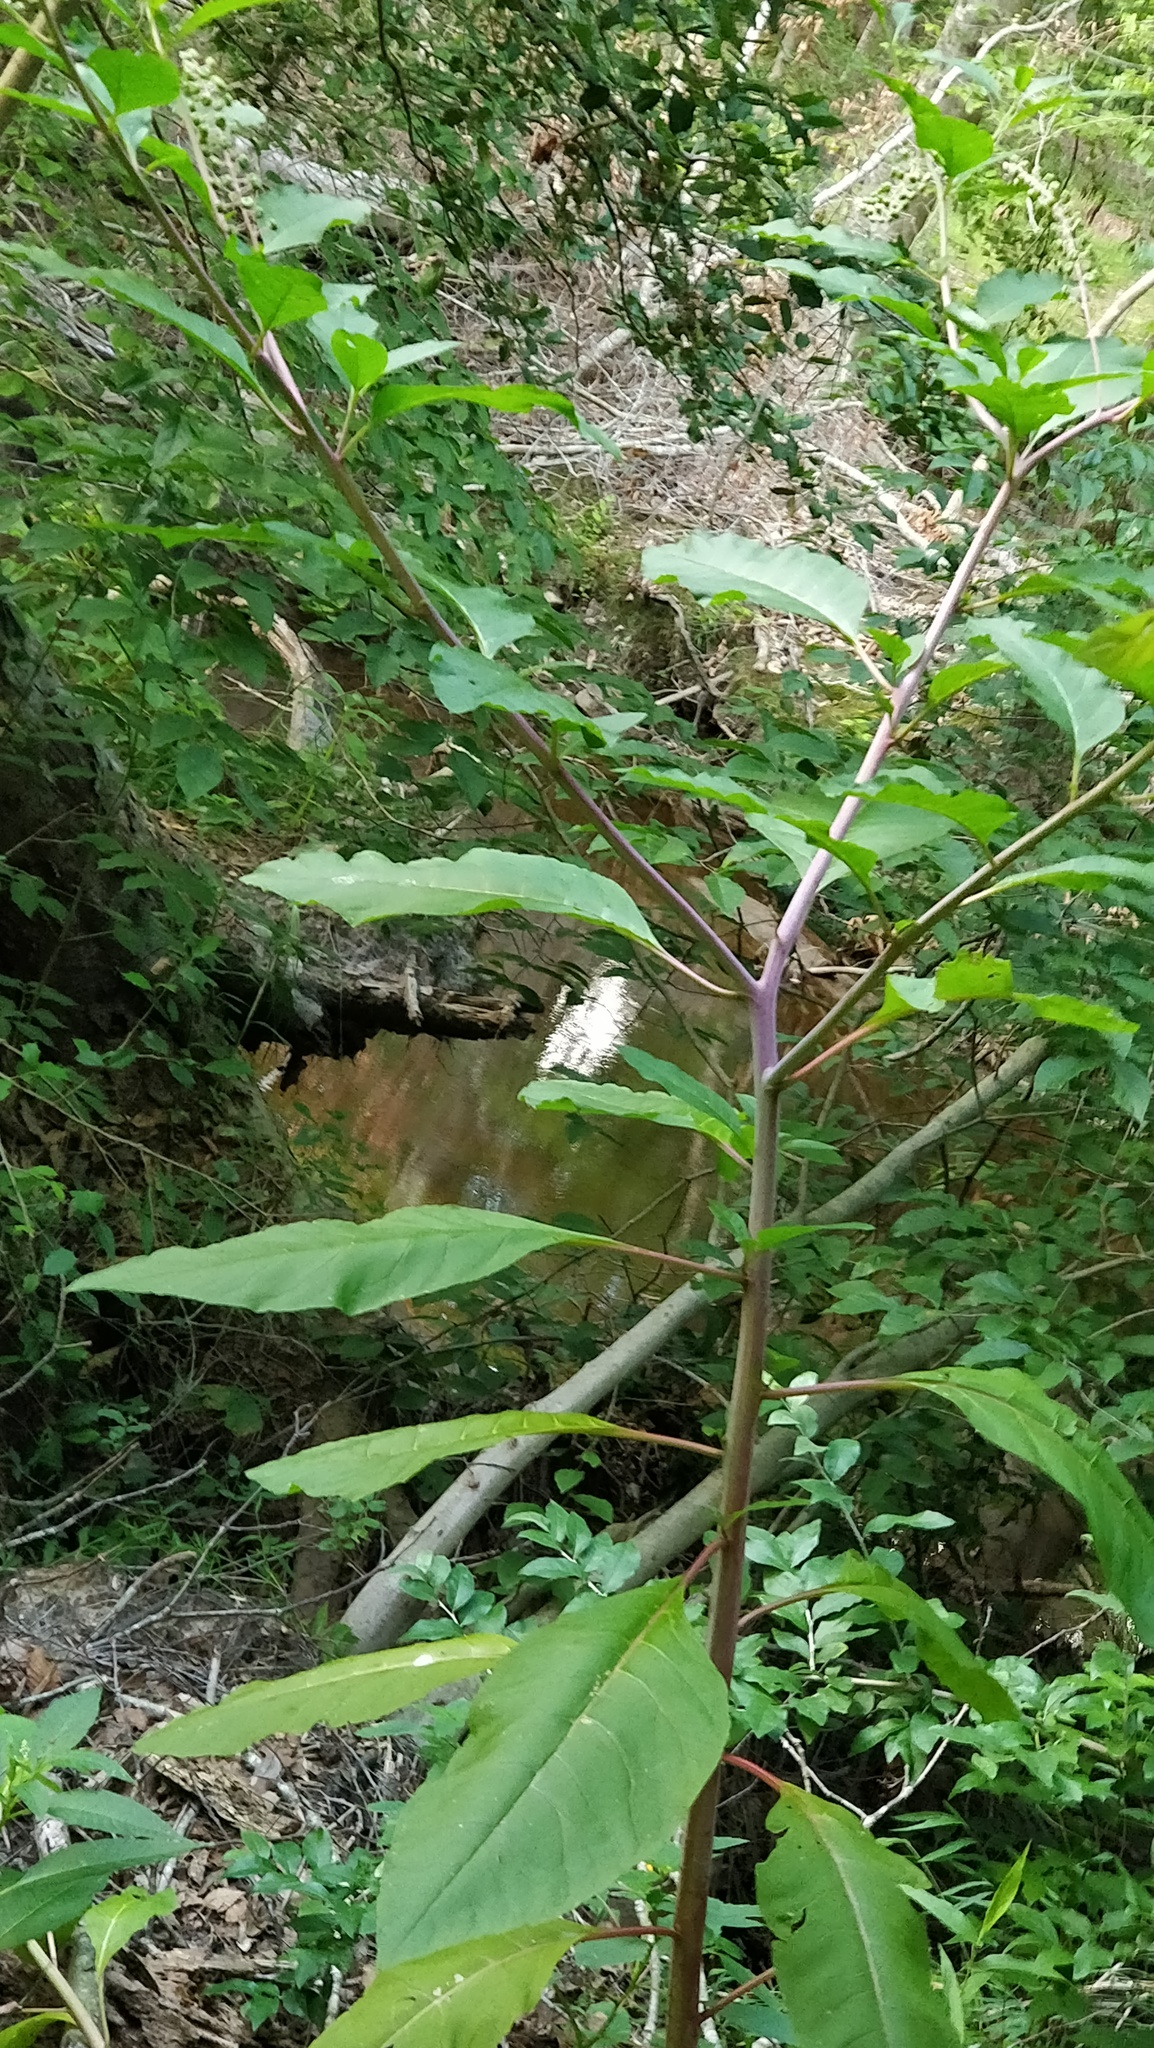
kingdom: Plantae
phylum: Tracheophyta
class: Magnoliopsida
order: Caryophyllales
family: Phytolaccaceae
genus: Phytolacca
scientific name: Phytolacca americana
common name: American pokeweed
